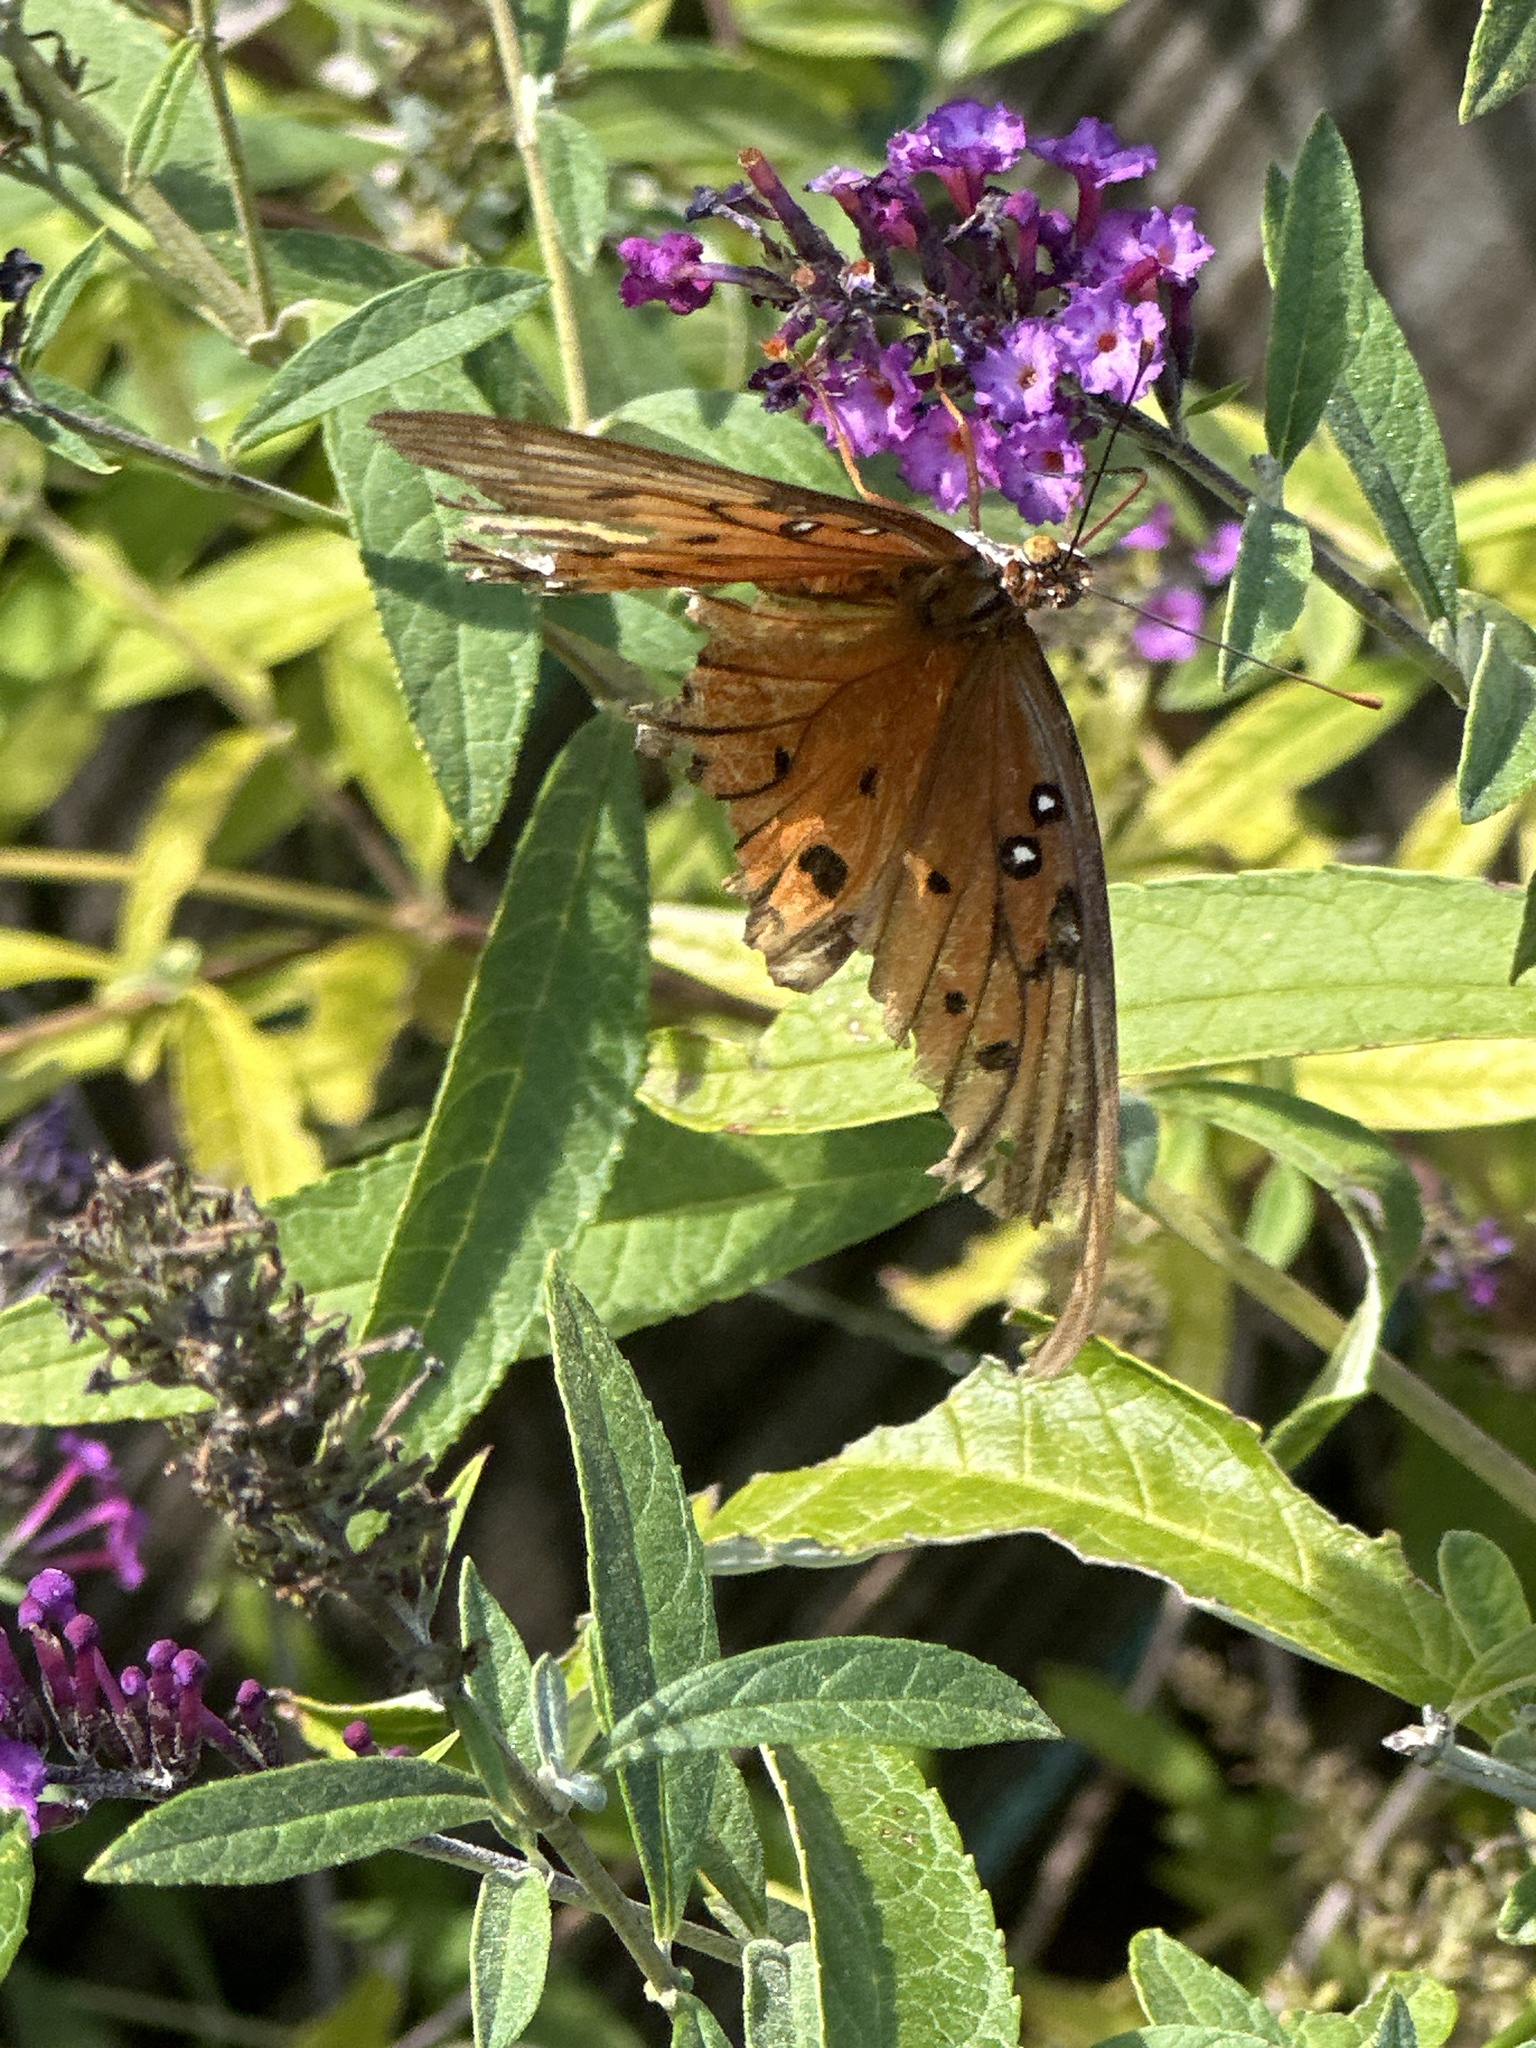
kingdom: Animalia
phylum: Arthropoda
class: Insecta
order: Lepidoptera
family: Nymphalidae
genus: Dione
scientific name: Dione vanillae
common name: Gulf fritillary
